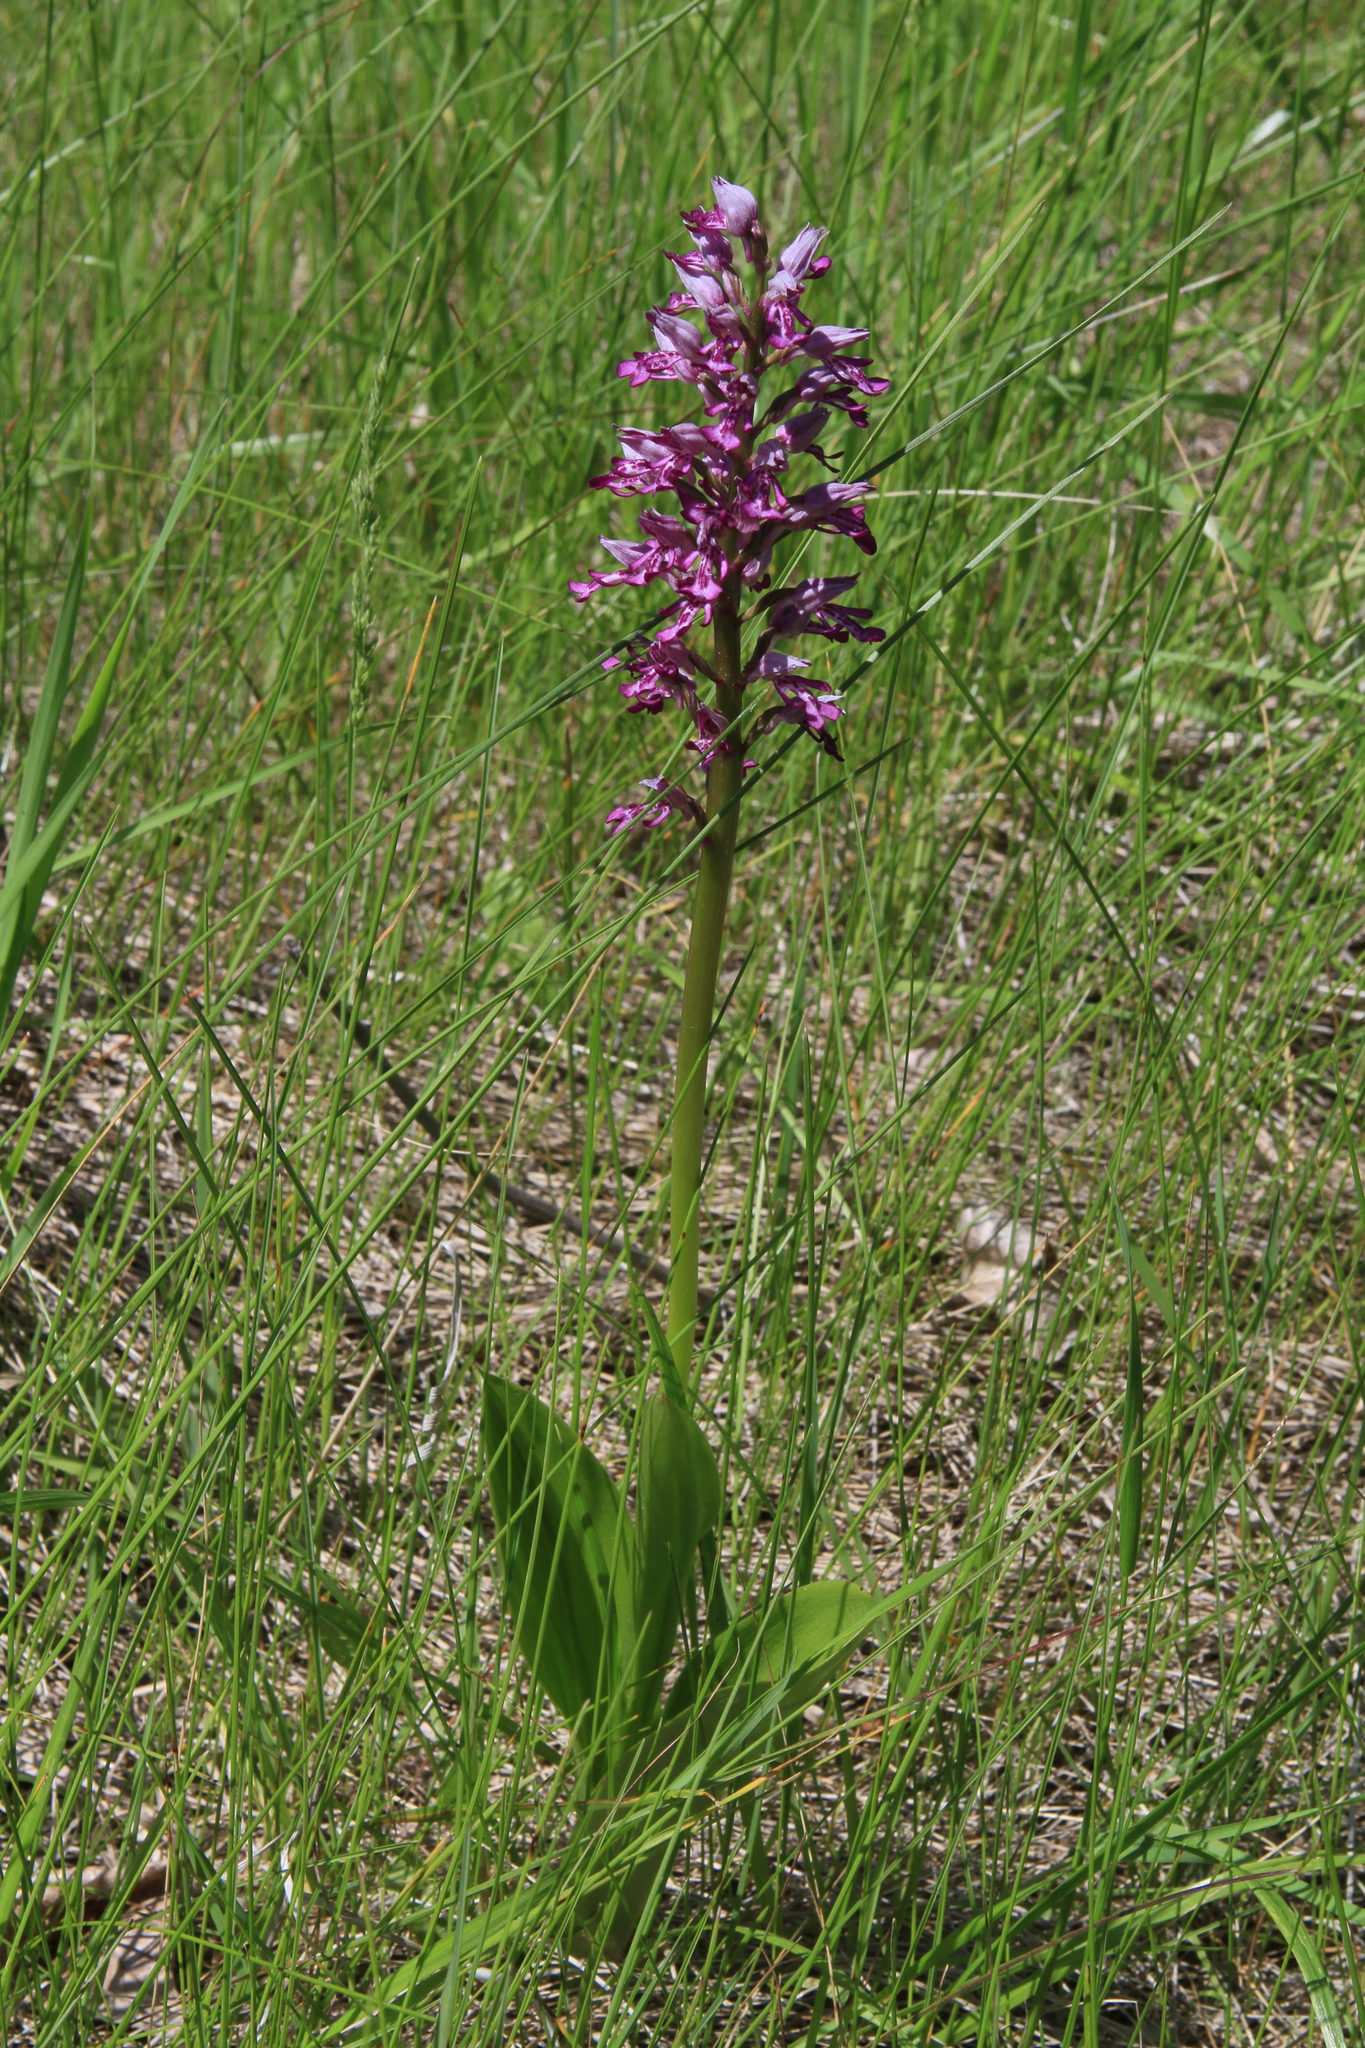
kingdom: Plantae
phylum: Tracheophyta
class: Liliopsida
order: Asparagales
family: Orchidaceae
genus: Orchis
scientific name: Orchis militaris
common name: Military orchid
